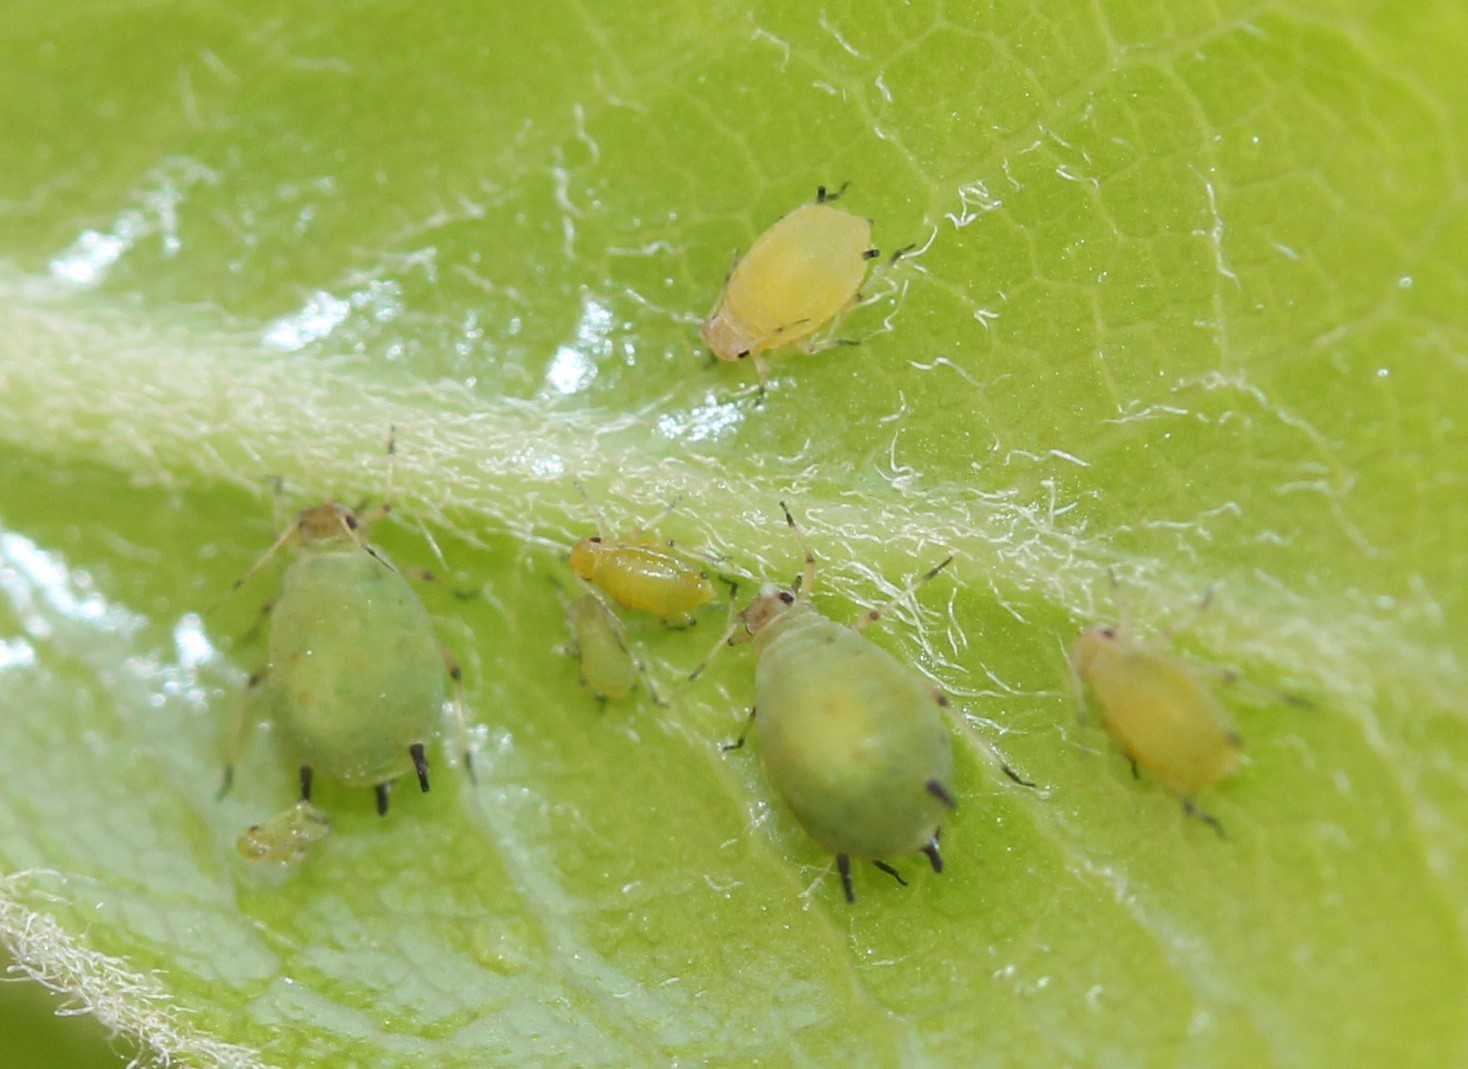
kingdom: Animalia
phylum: Arthropoda
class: Insecta
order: Hemiptera
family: Aphididae
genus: Aphis
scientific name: Aphis spiraecola
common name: Spirea aphid
